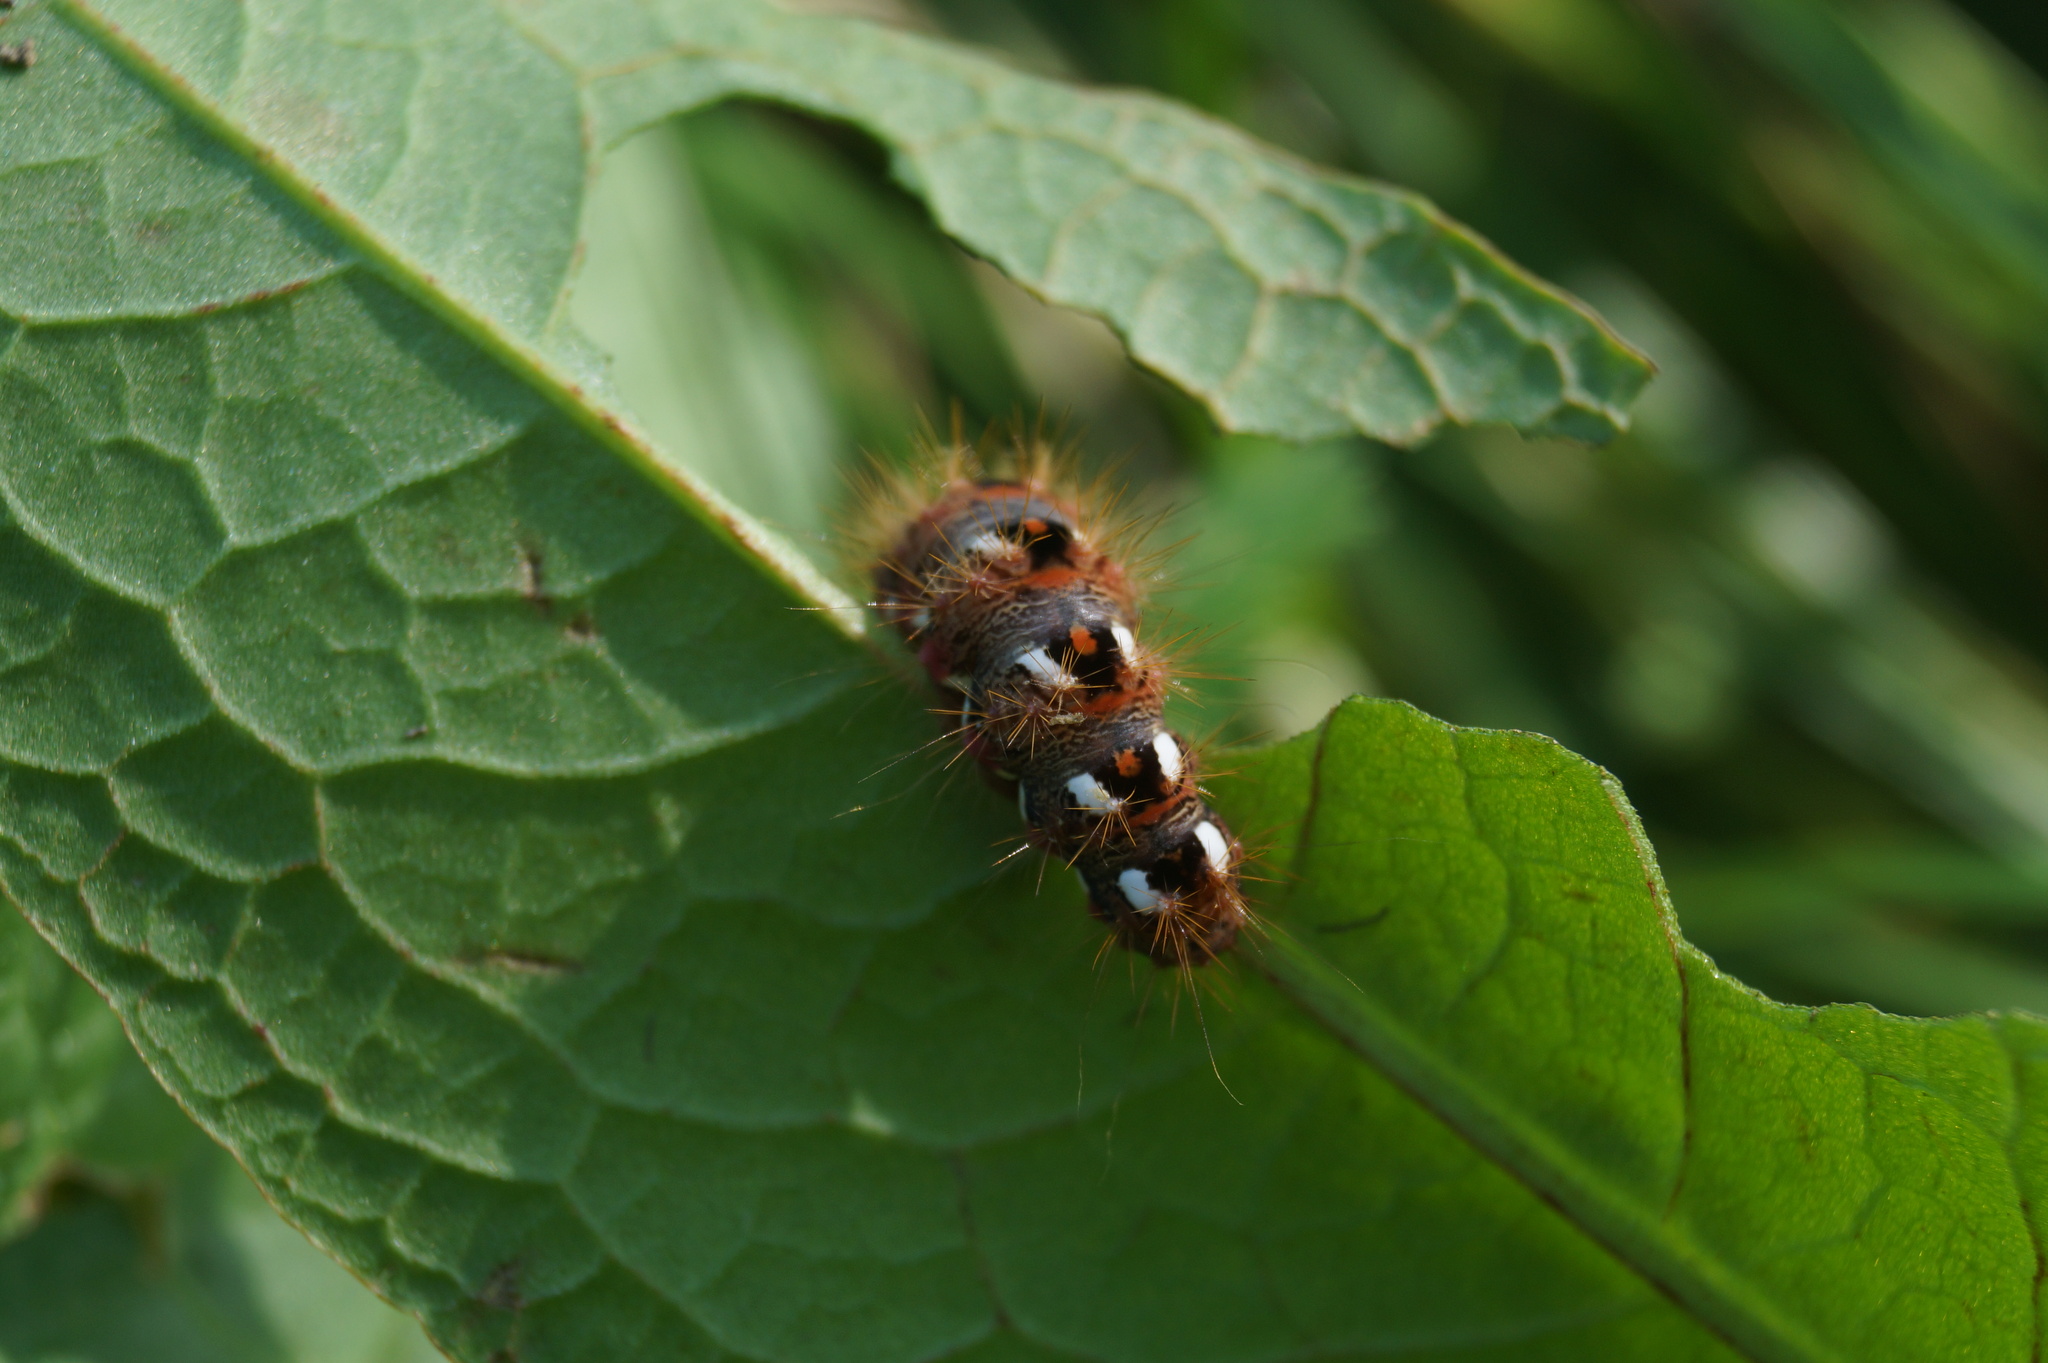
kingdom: Animalia
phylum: Arthropoda
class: Insecta
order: Lepidoptera
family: Noctuidae
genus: Acronicta
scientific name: Acronicta rumicis
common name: Knot grass
